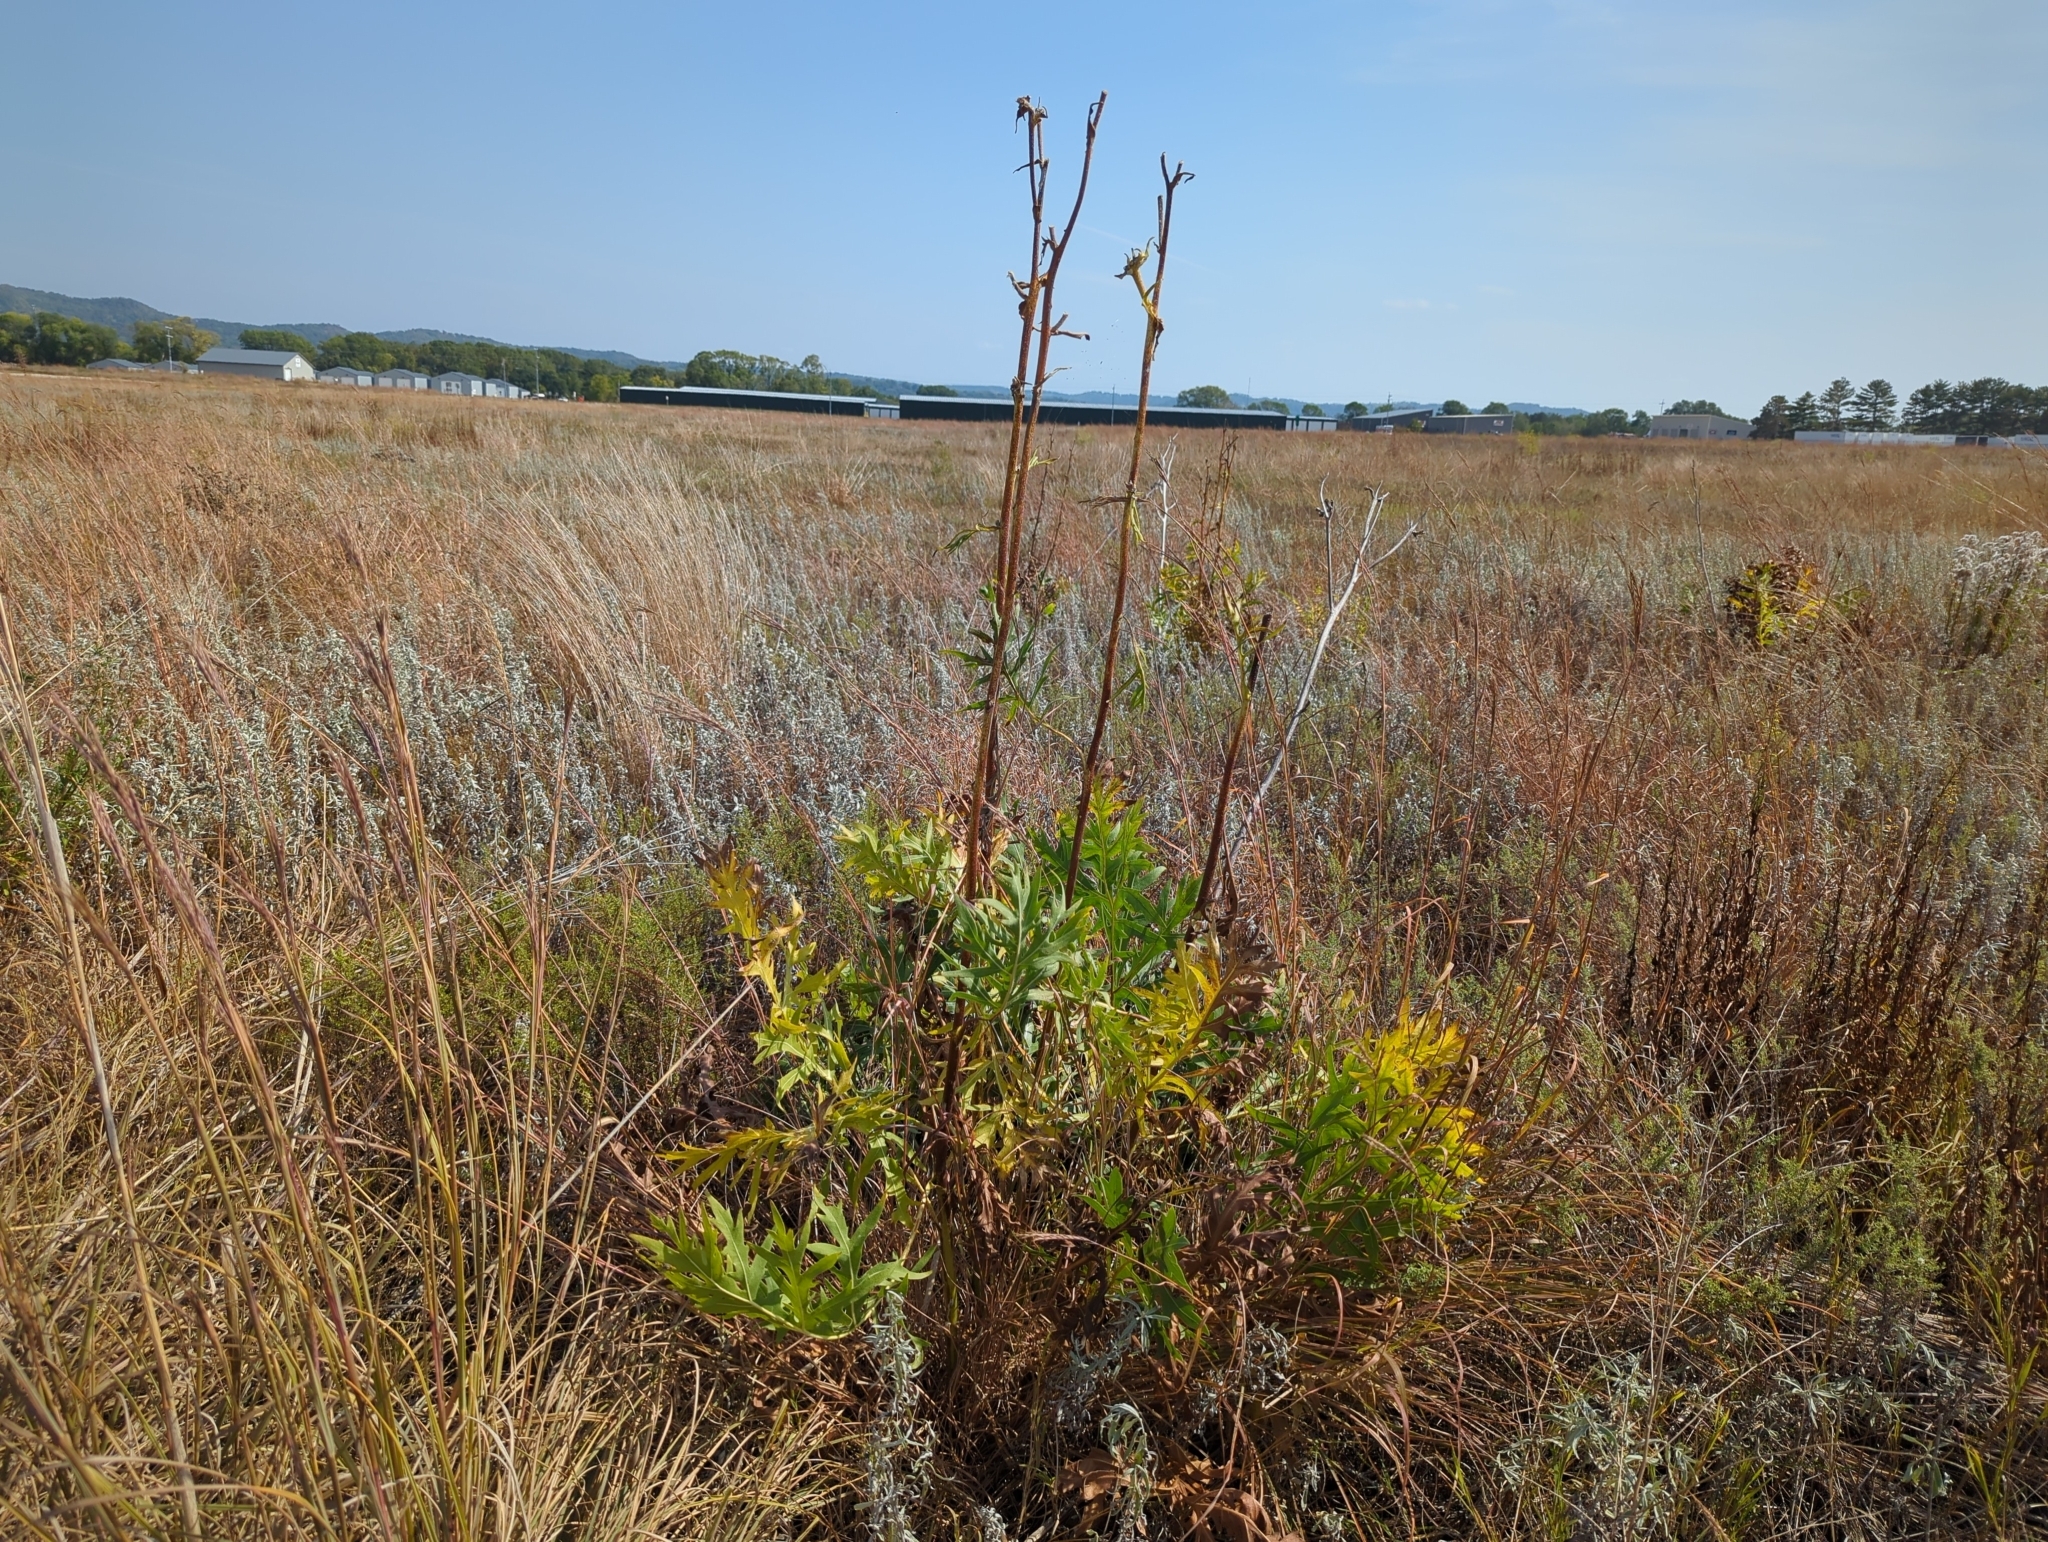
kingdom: Plantae
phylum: Tracheophyta
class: Magnoliopsida
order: Asterales
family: Asteraceae
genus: Silphium
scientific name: Silphium laciniatum
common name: Polarplant
